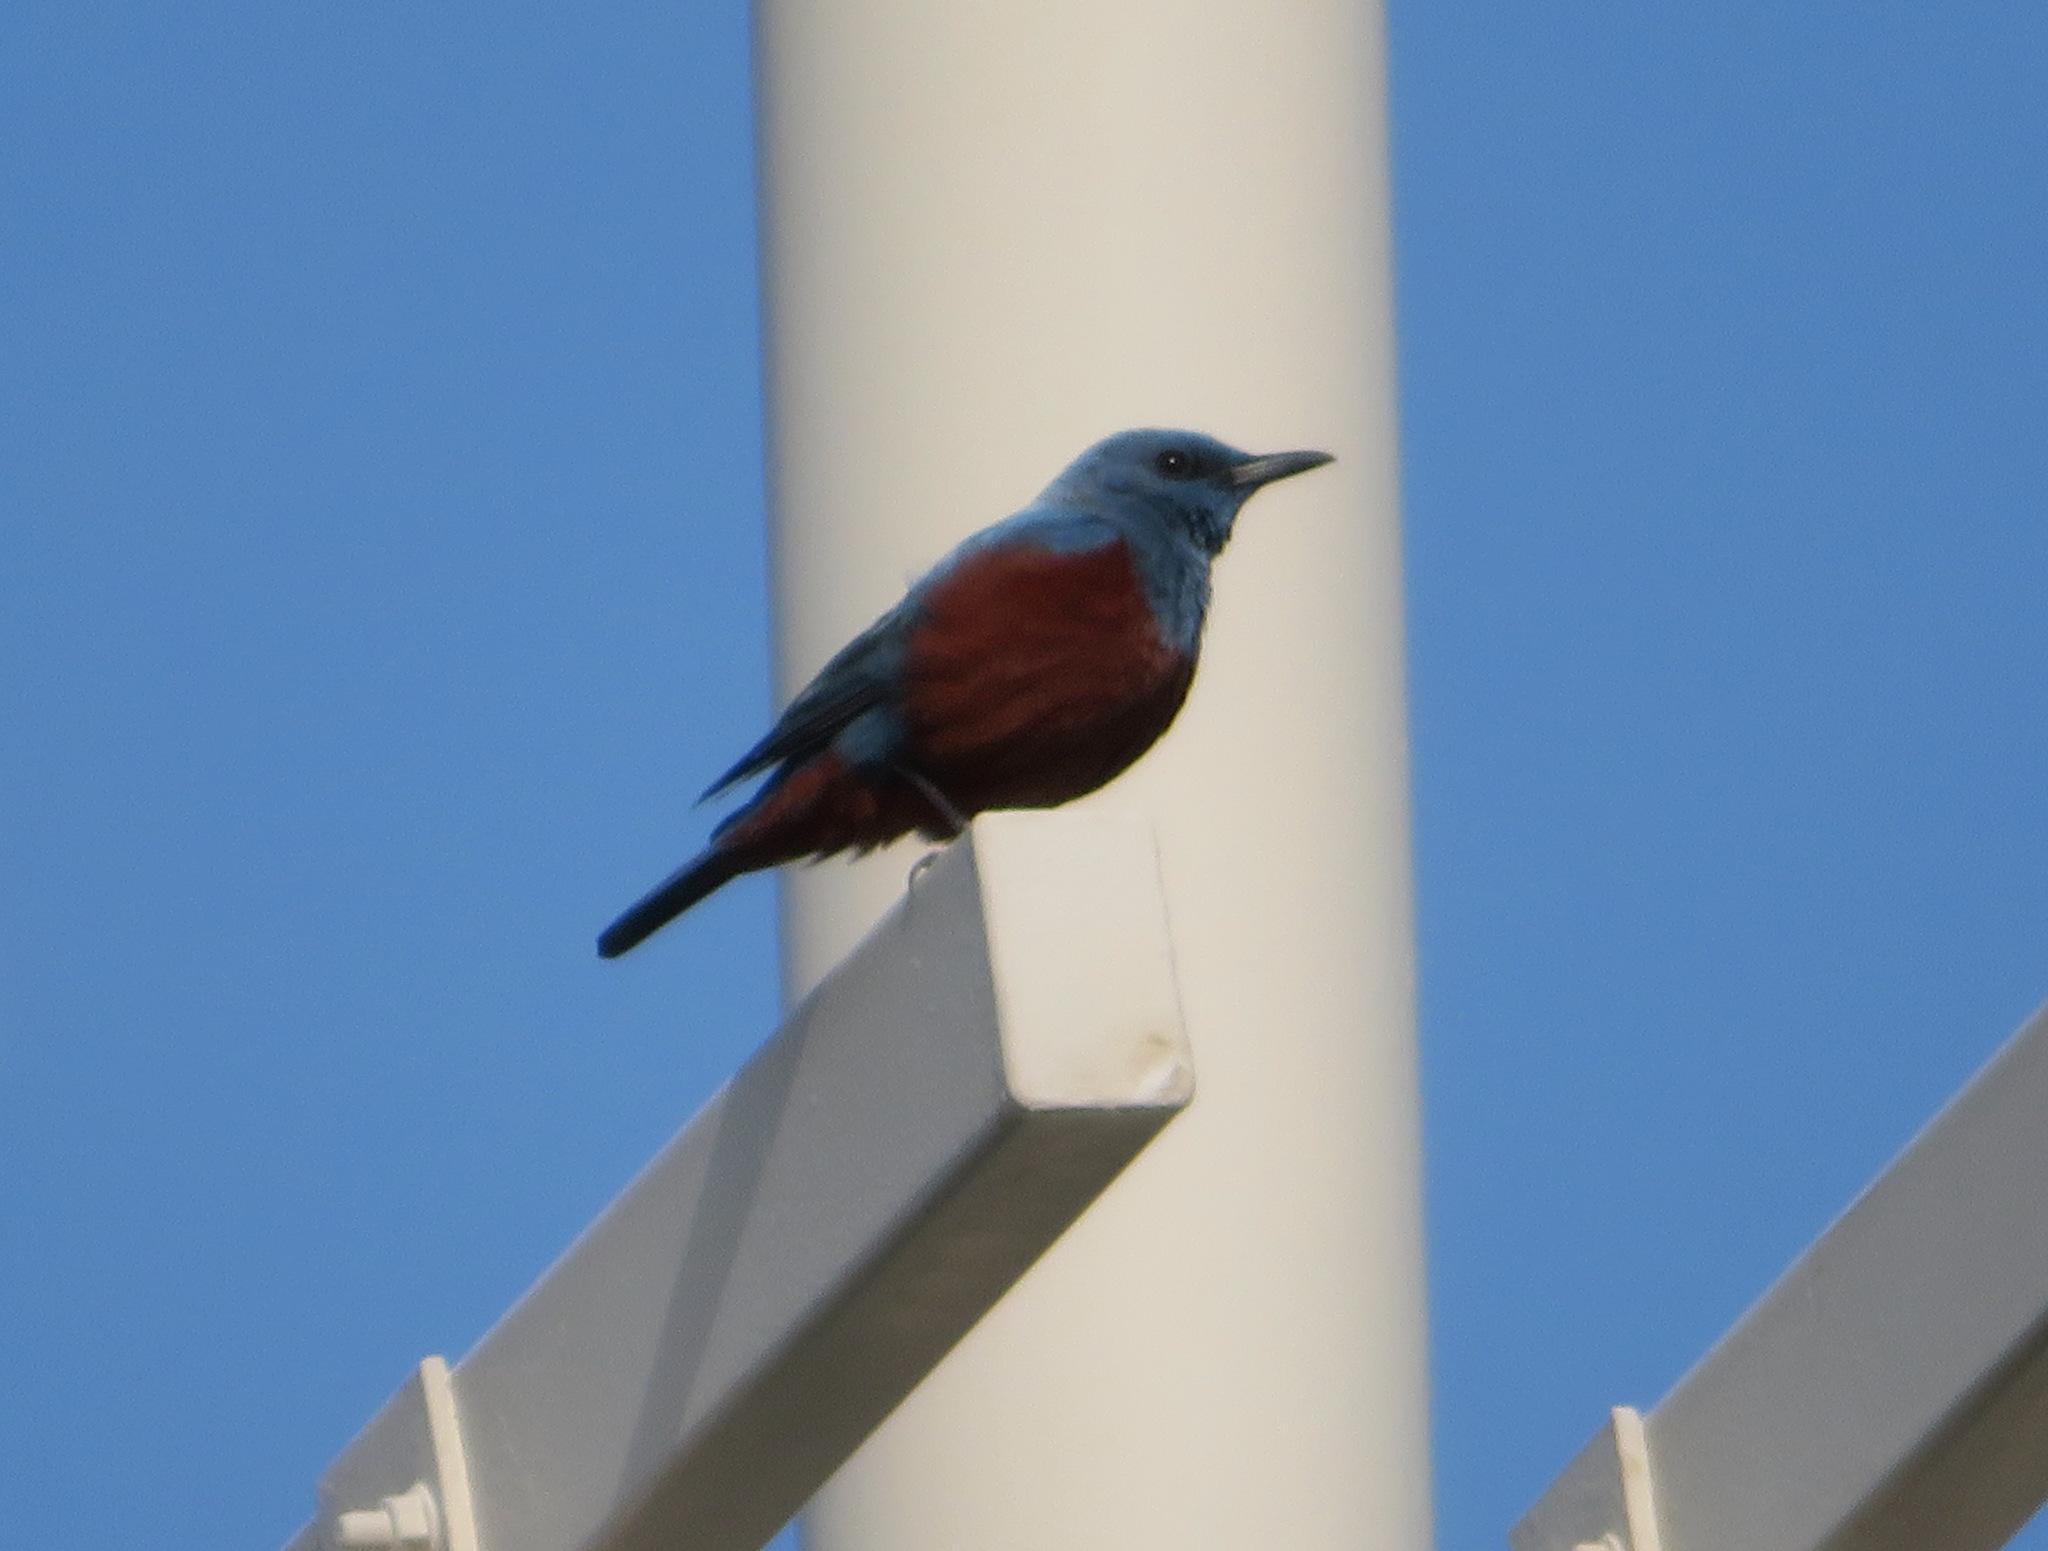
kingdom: Animalia
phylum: Chordata
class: Aves
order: Passeriformes
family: Muscicapidae
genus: Monticola
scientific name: Monticola solitarius
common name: Blue rock thrush
